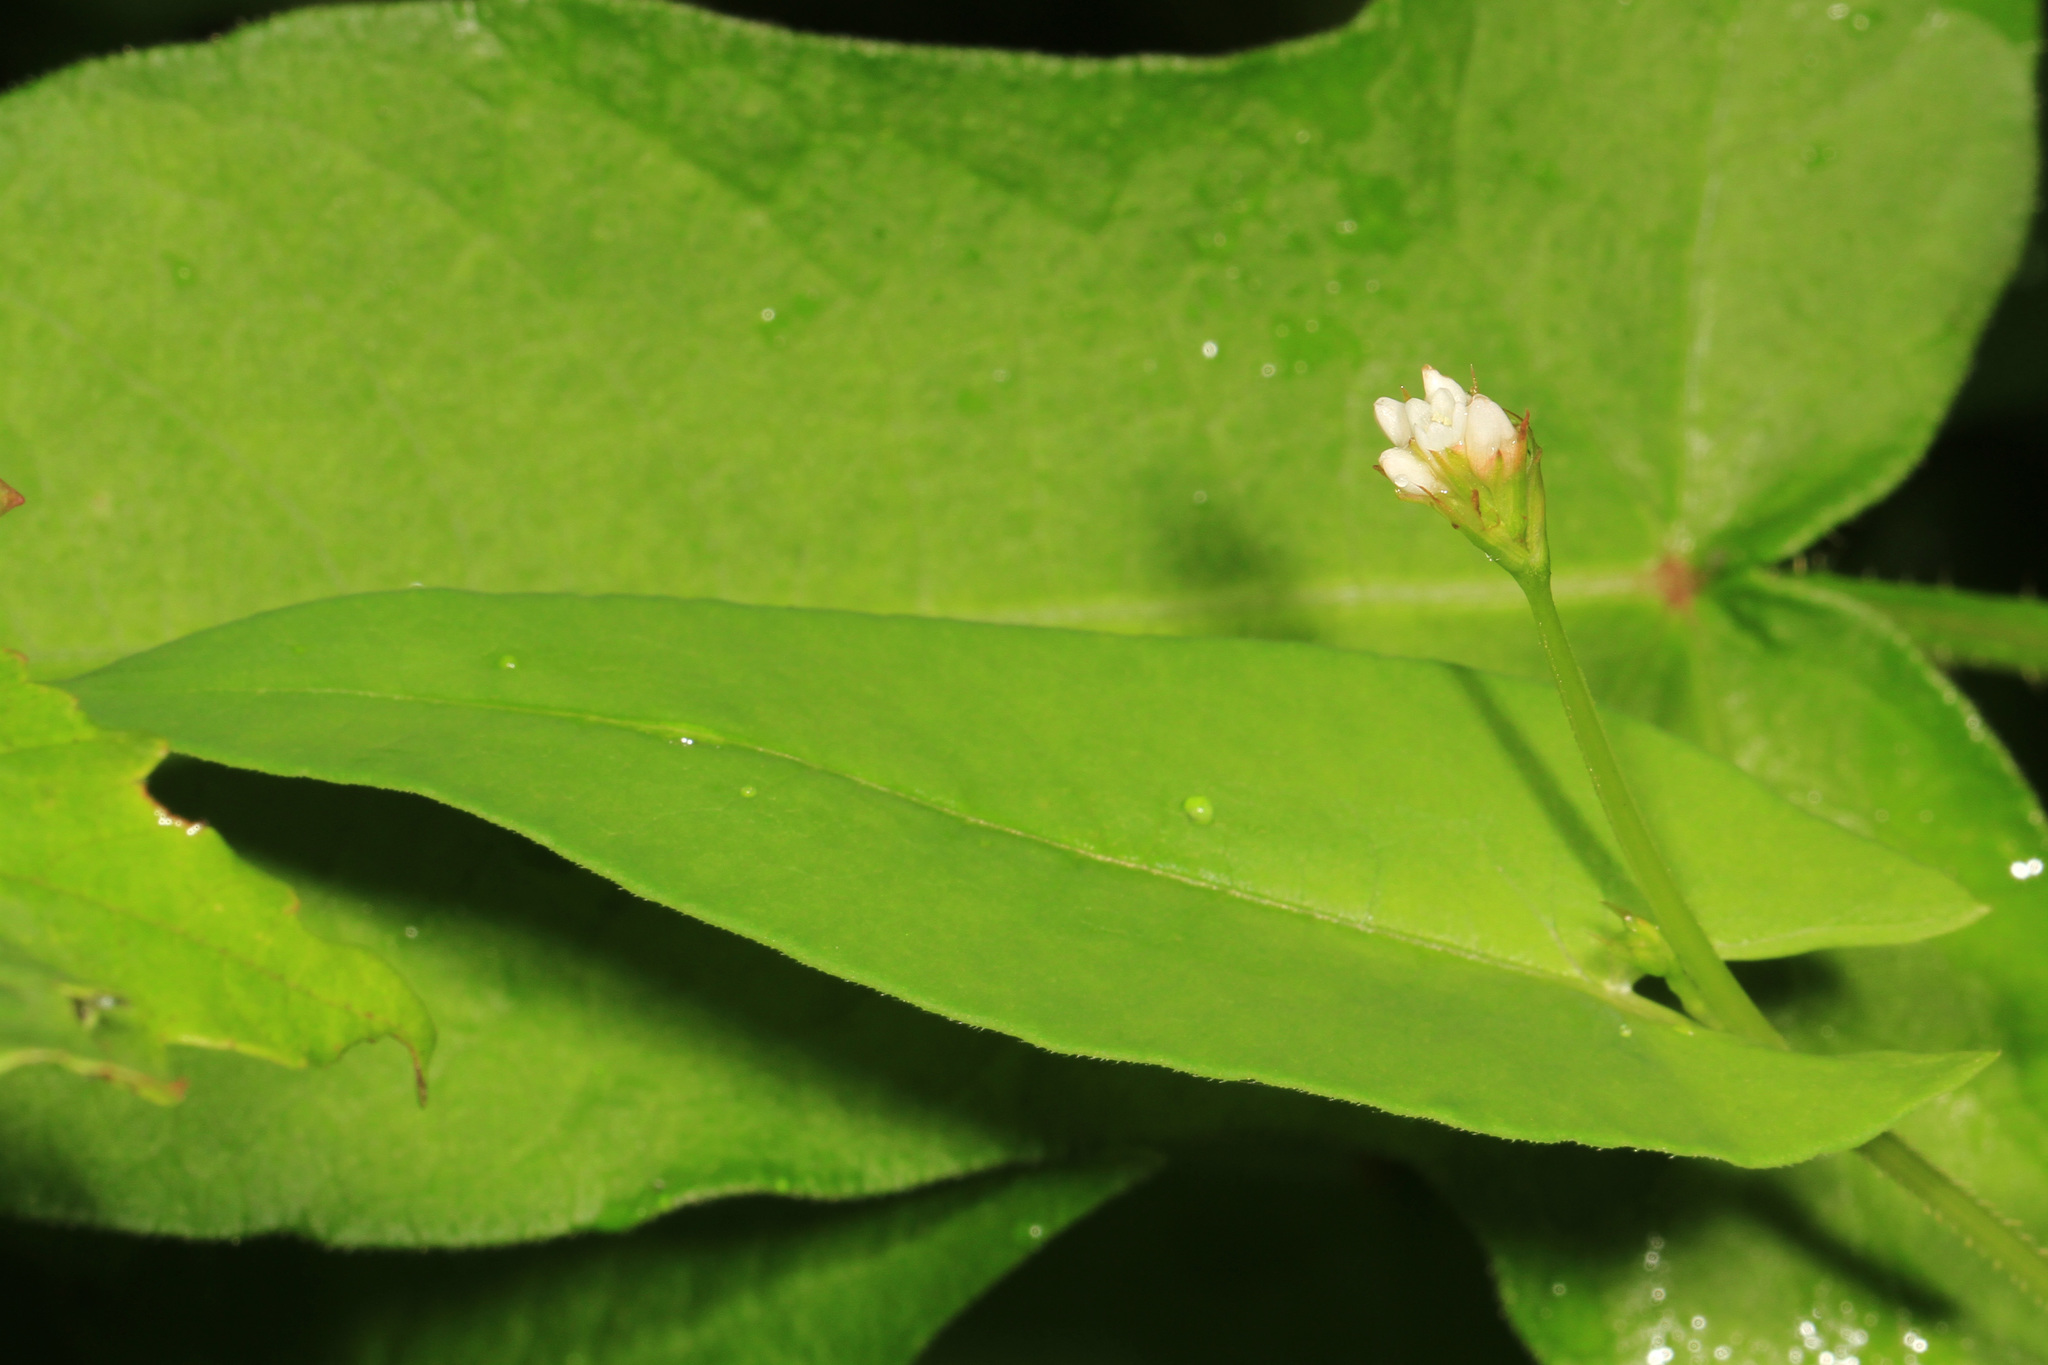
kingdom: Plantae
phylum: Tracheophyta
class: Magnoliopsida
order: Caryophyllales
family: Polygonaceae
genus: Persicaria
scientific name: Persicaria sagittata
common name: American tearthumb
